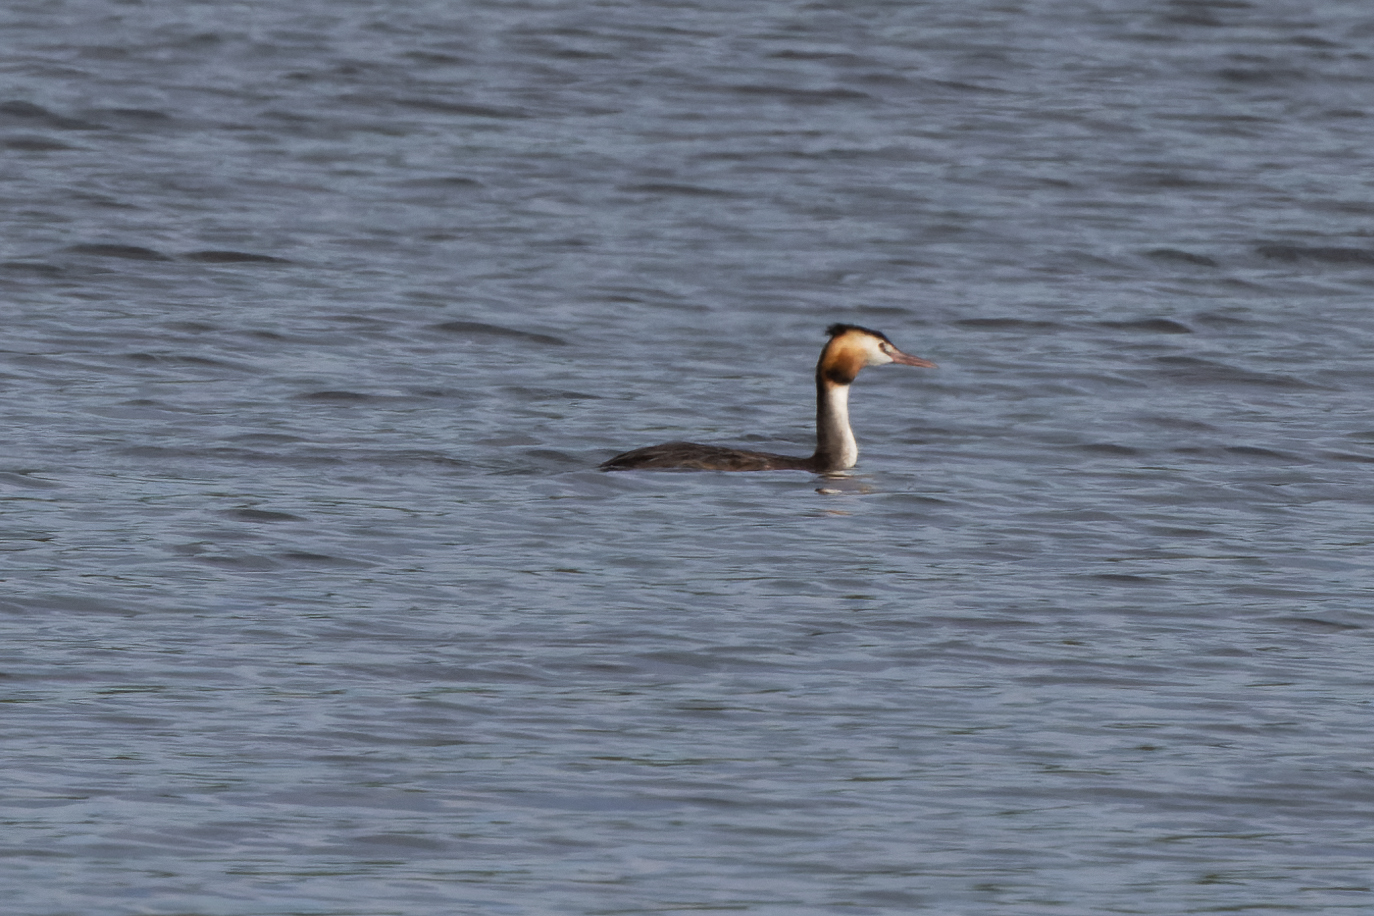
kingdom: Animalia
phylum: Chordata
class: Aves
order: Podicipediformes
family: Podicipedidae
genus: Podiceps
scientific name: Podiceps cristatus
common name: Great crested grebe
